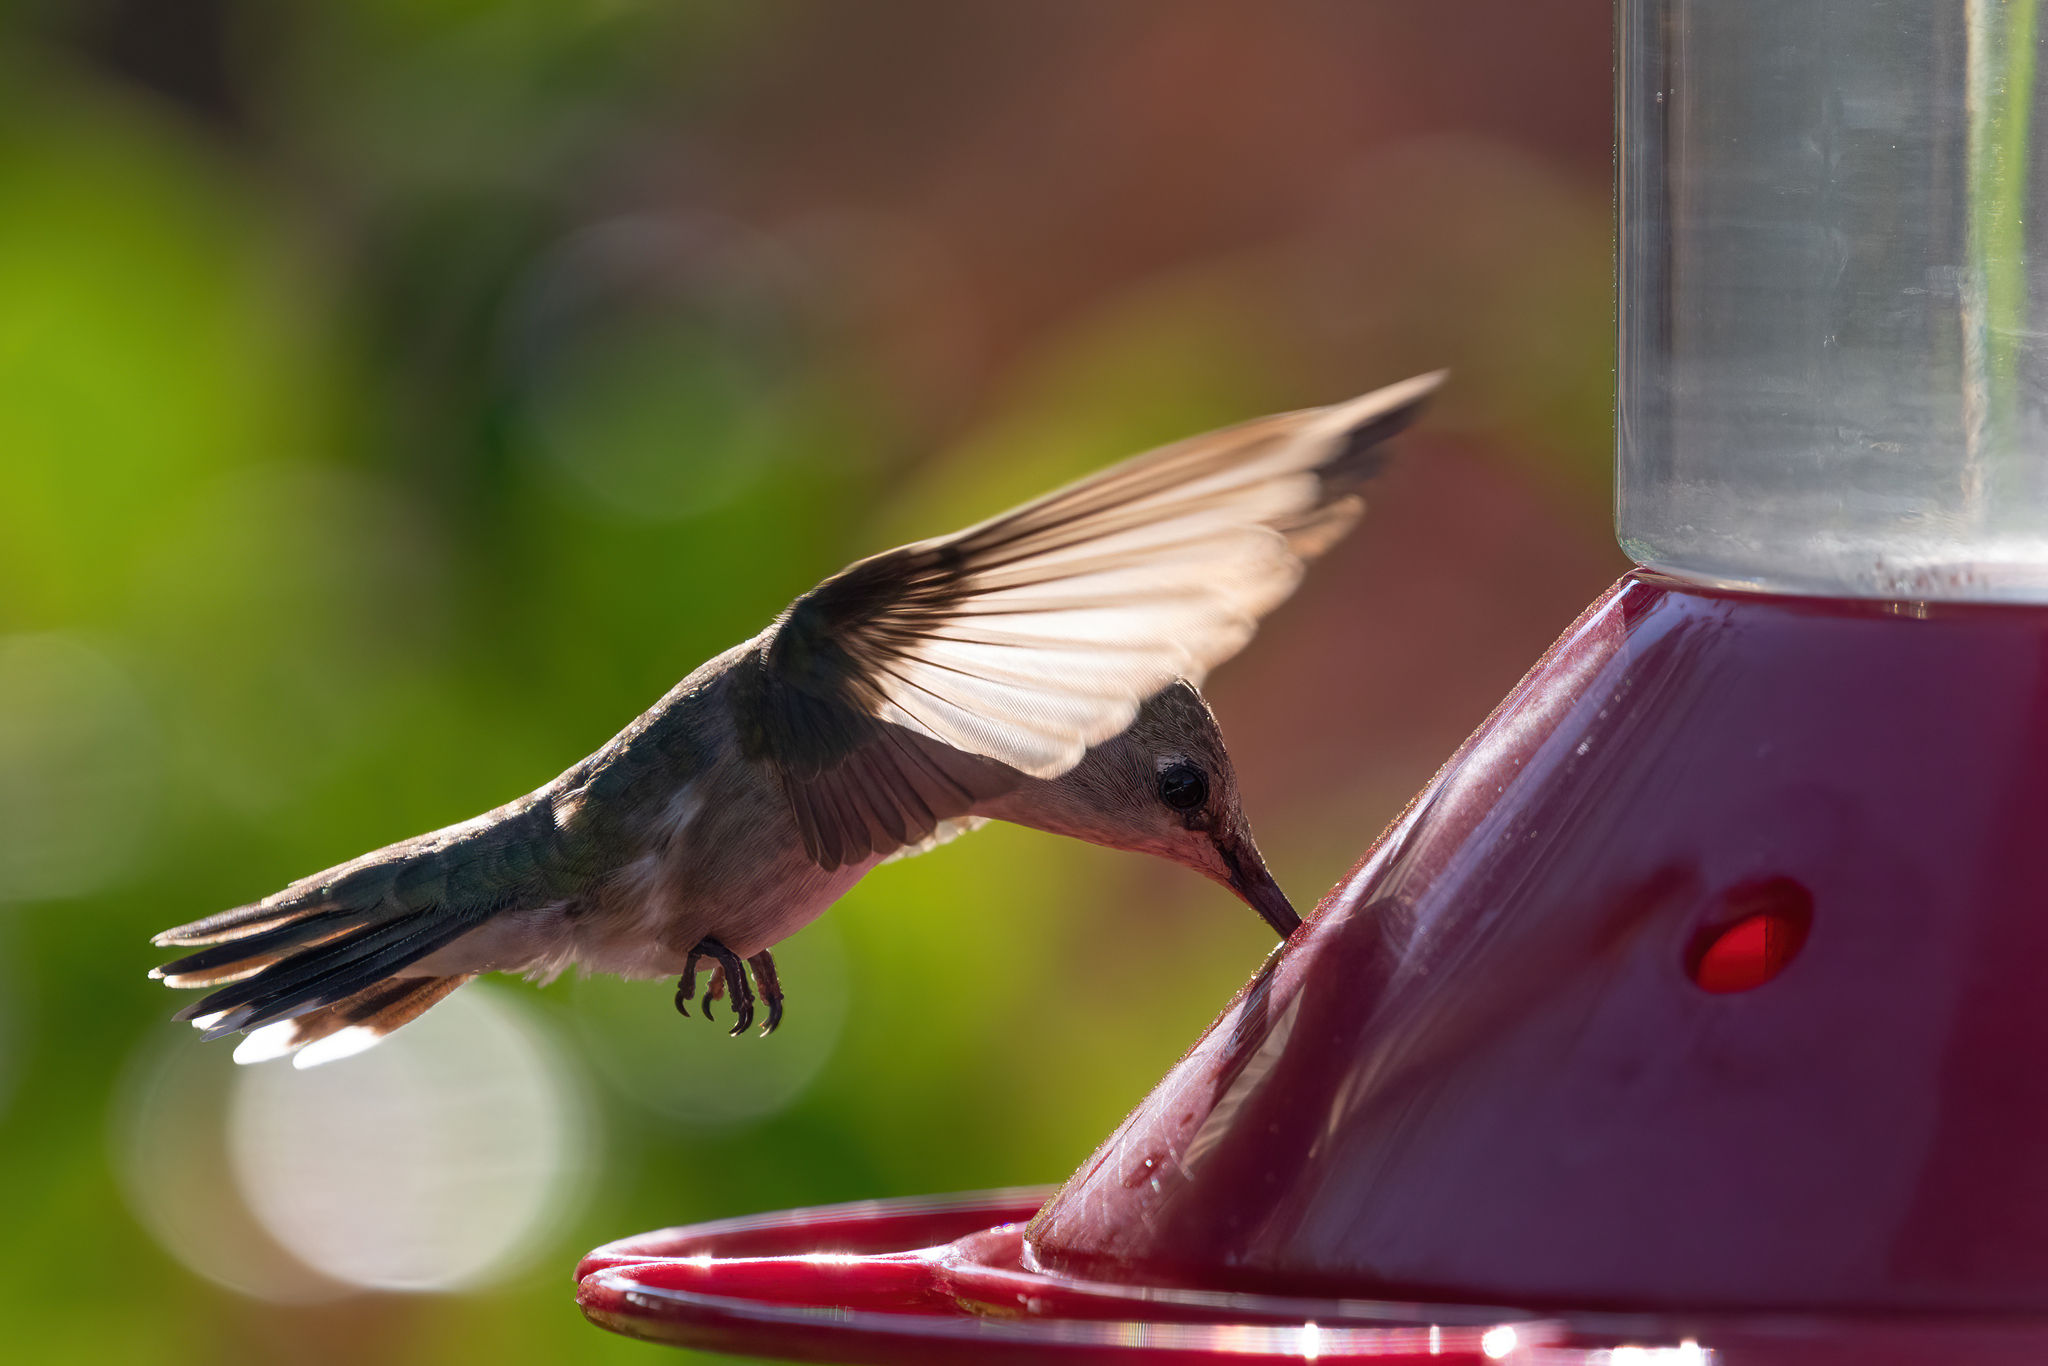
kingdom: Animalia
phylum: Chordata
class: Aves
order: Apodiformes
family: Trochilidae
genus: Archilochus
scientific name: Archilochus alexandri
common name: Black-chinned hummingbird
